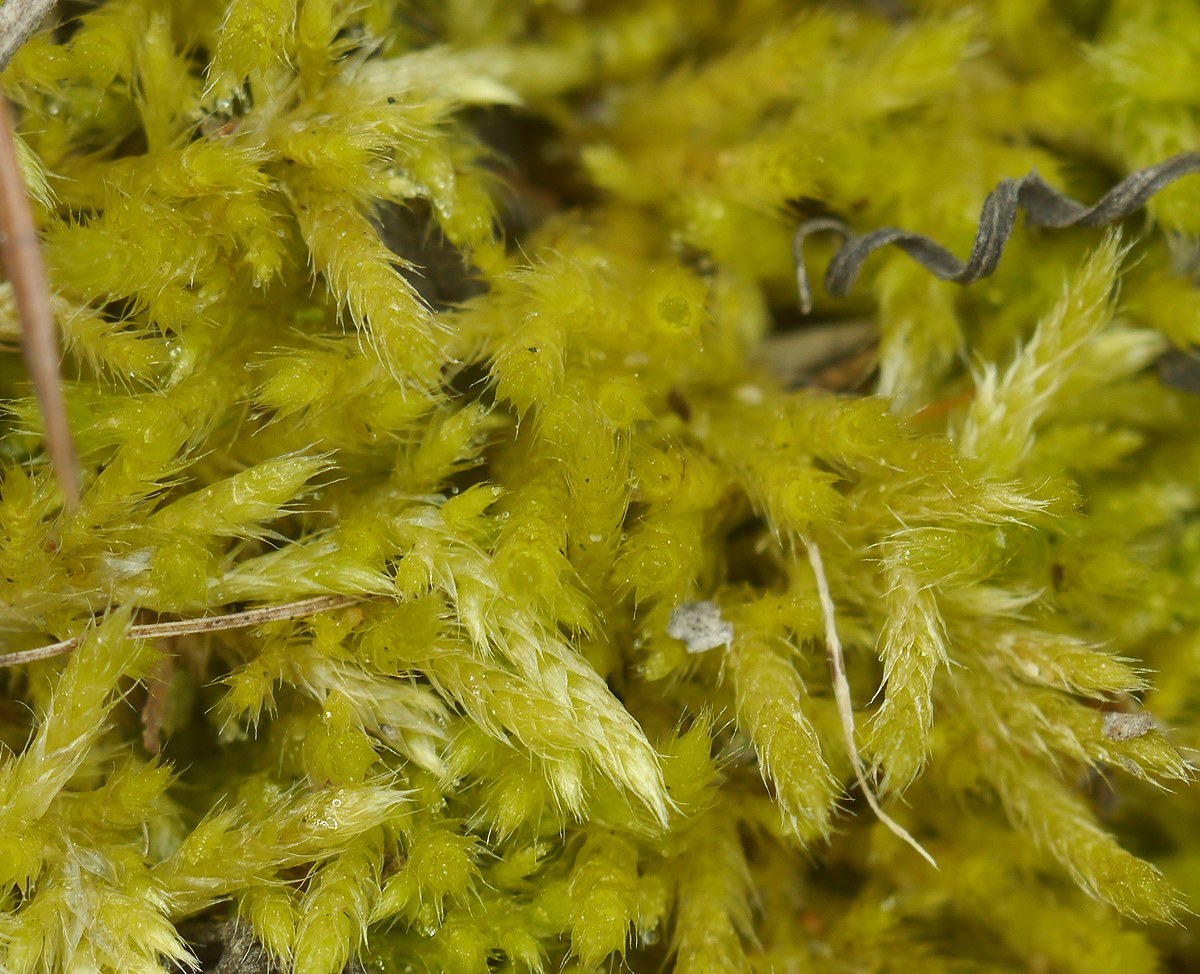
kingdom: Plantae
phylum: Bryophyta
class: Bryopsida
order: Hypnales
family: Brachytheciaceae
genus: Brachythecium
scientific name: Brachythecium albicans
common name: Whitish ragged moss
